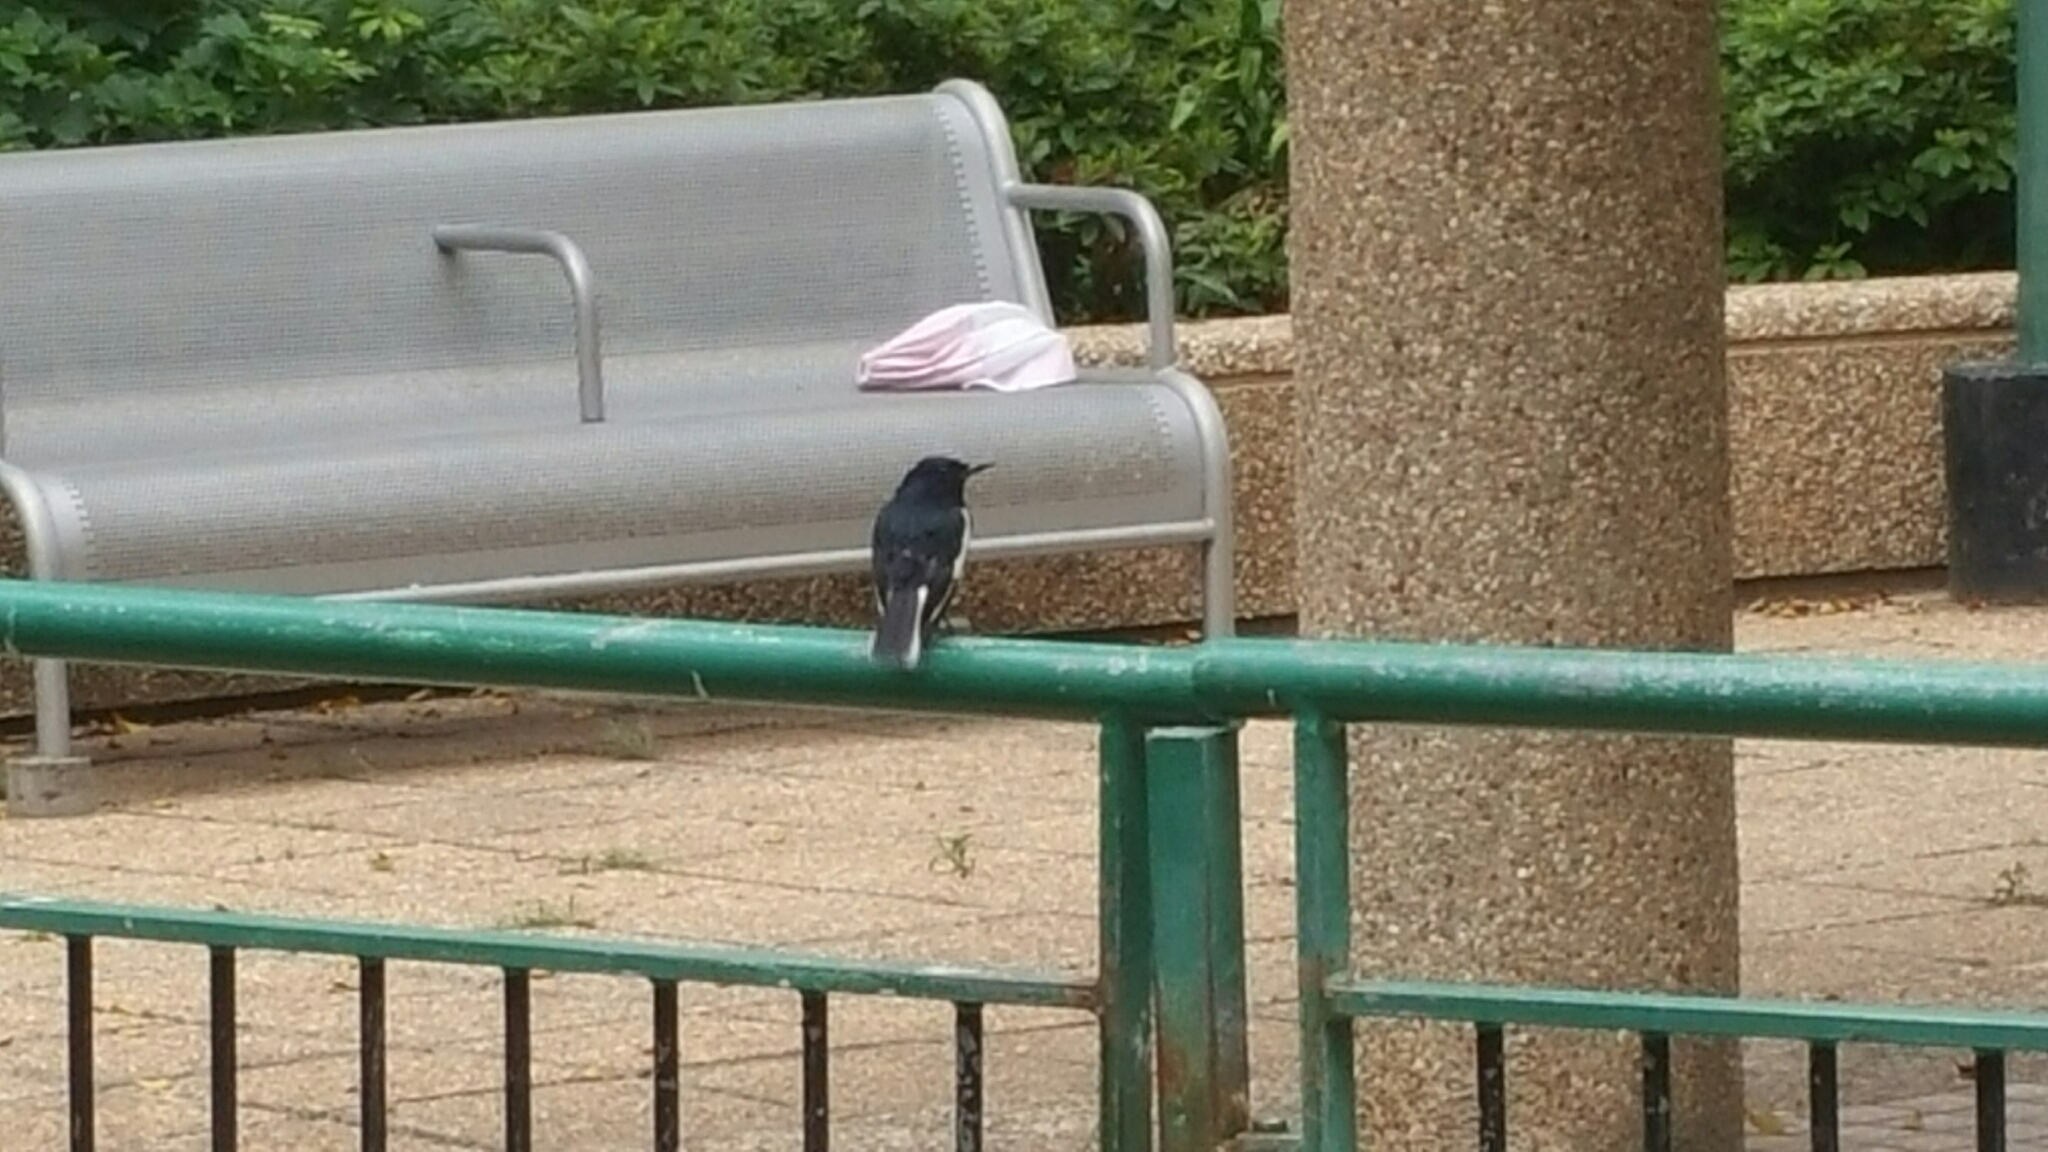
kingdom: Animalia
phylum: Chordata
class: Aves
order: Passeriformes
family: Muscicapidae
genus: Copsychus
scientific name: Copsychus saularis
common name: Oriental magpie-robin
